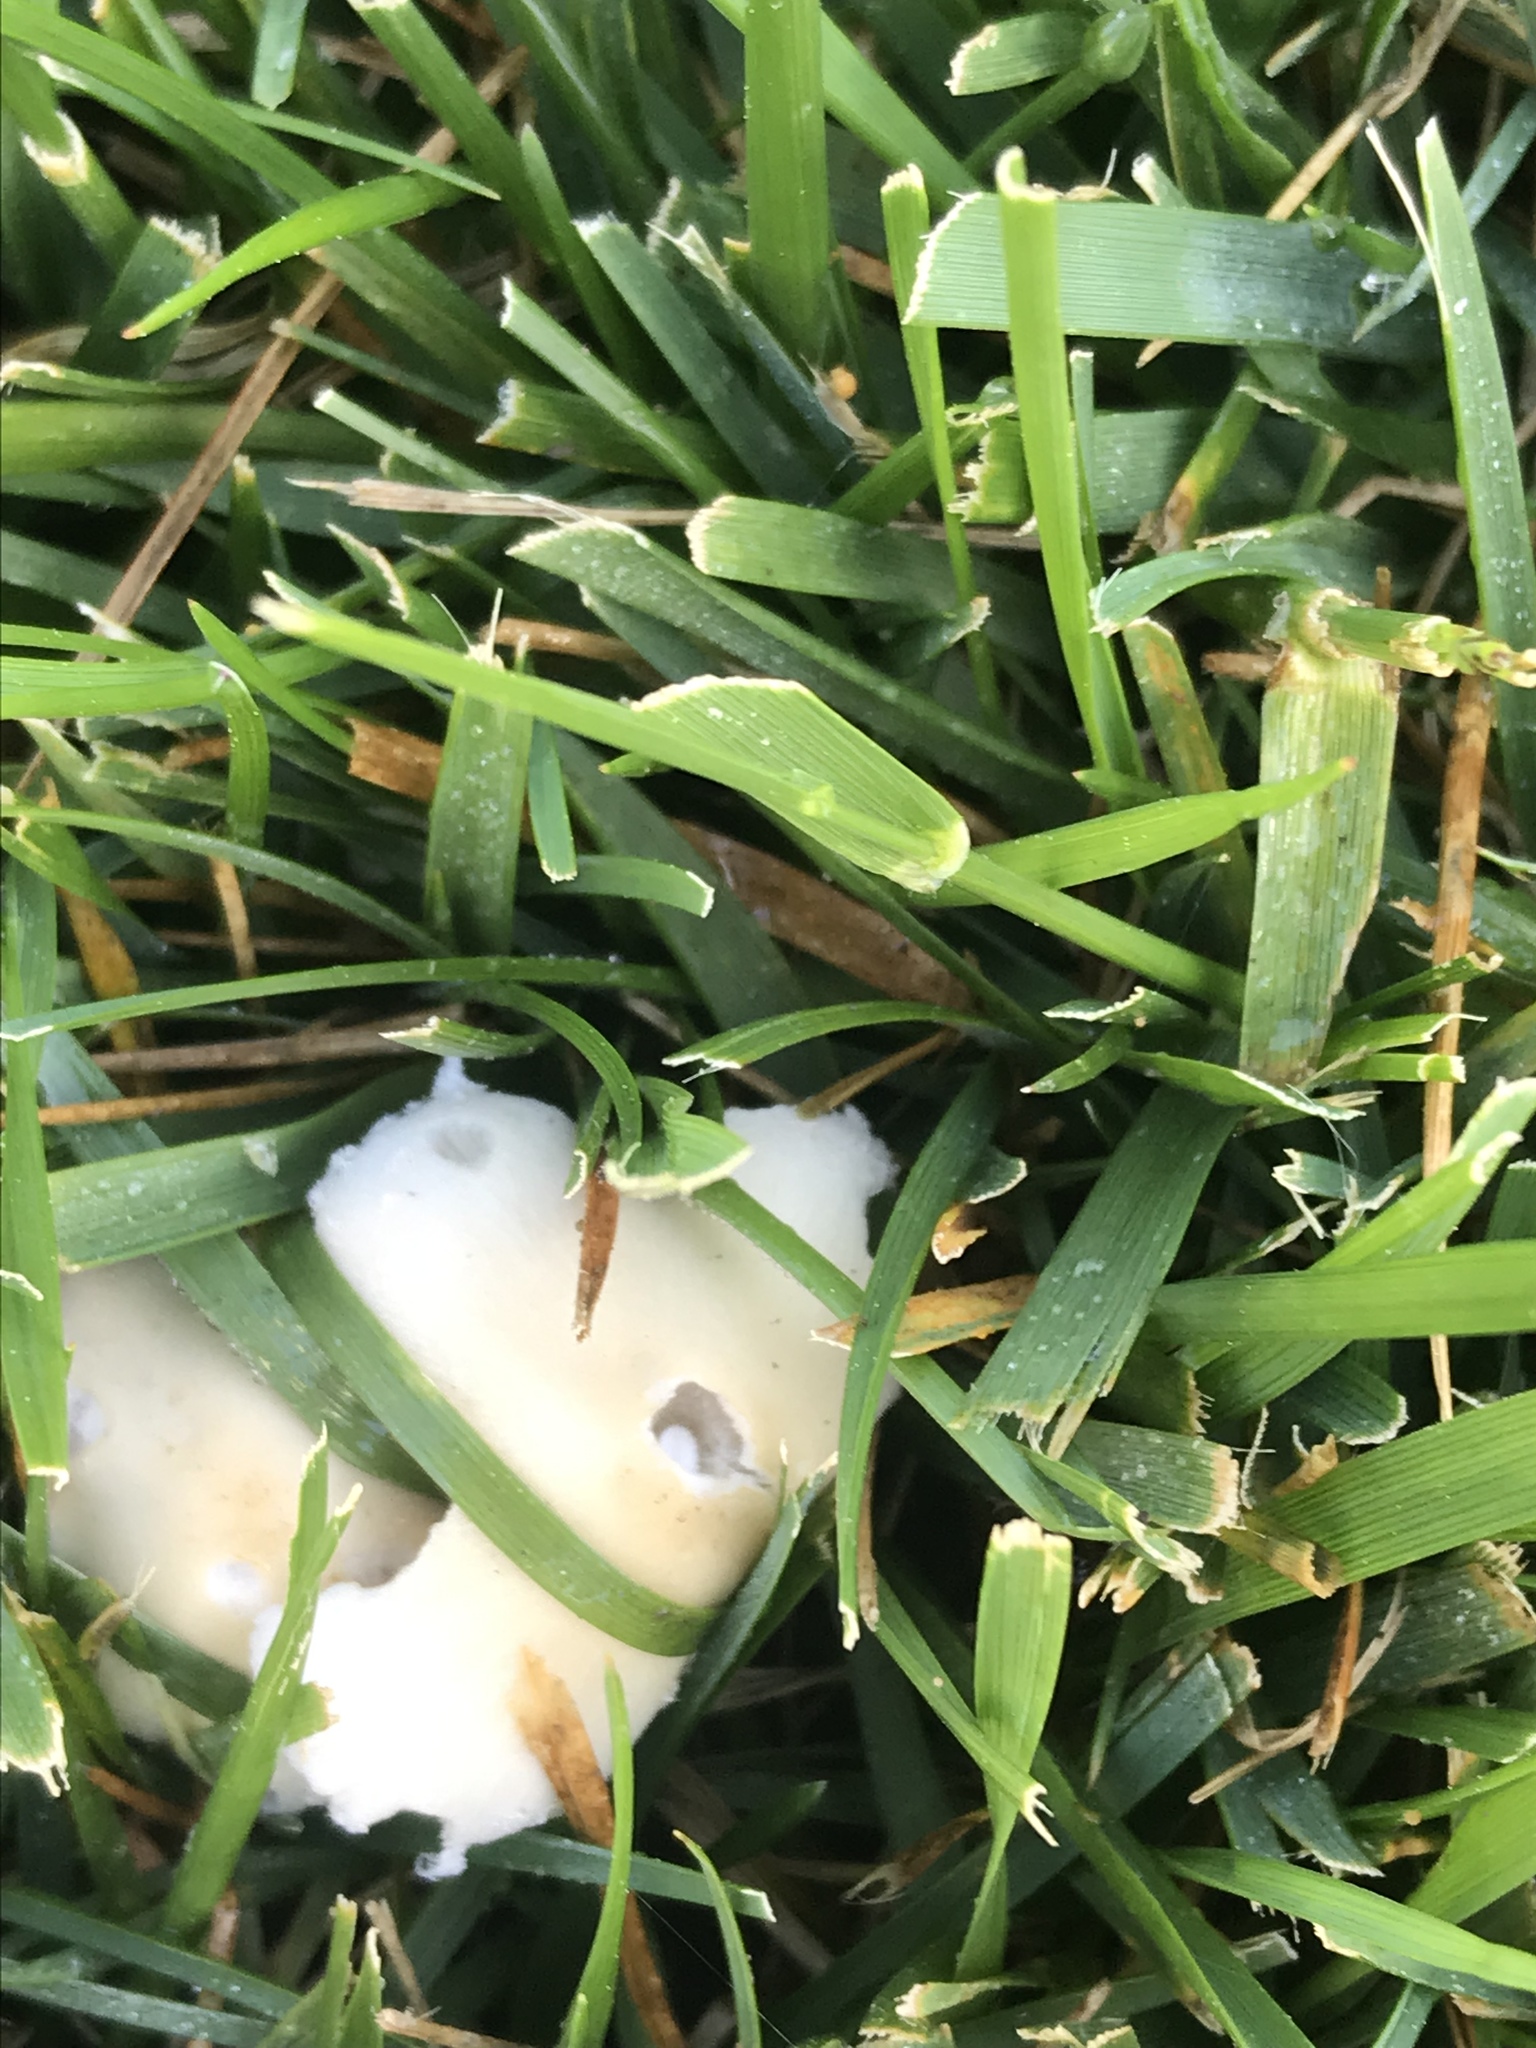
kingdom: Fungi
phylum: Basidiomycota
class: Agaricomycetes
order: Agaricales
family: Psathyrellaceae
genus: Candolleomyces
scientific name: Candolleomyces candolleanus
